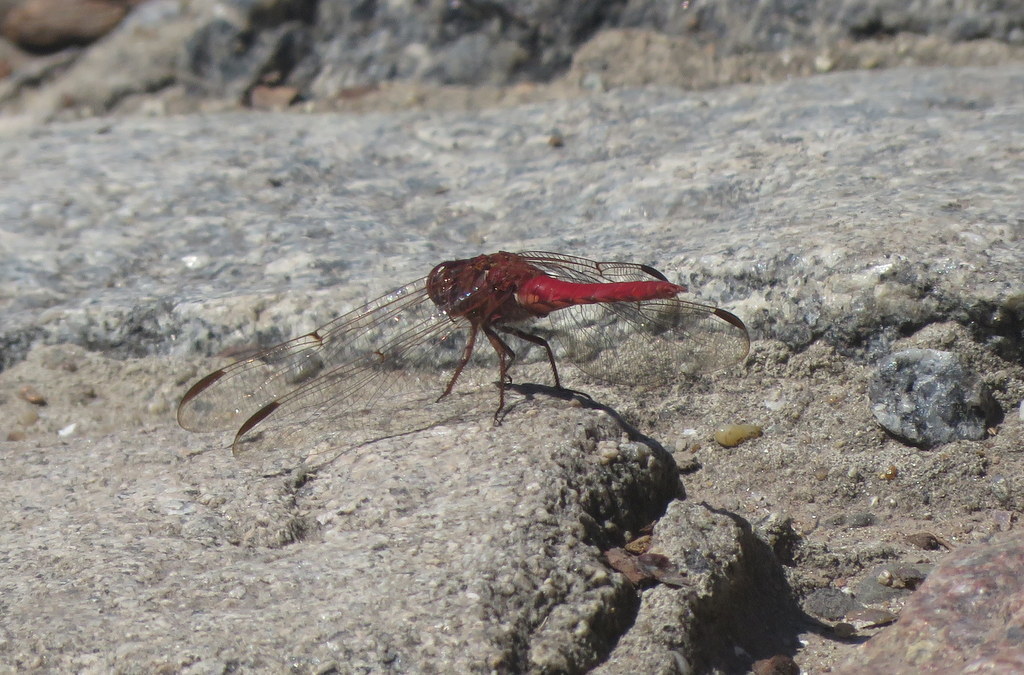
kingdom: Animalia
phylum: Arthropoda
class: Insecta
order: Odonata
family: Libellulidae
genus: Orthemis
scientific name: Orthemis nodiplaga
